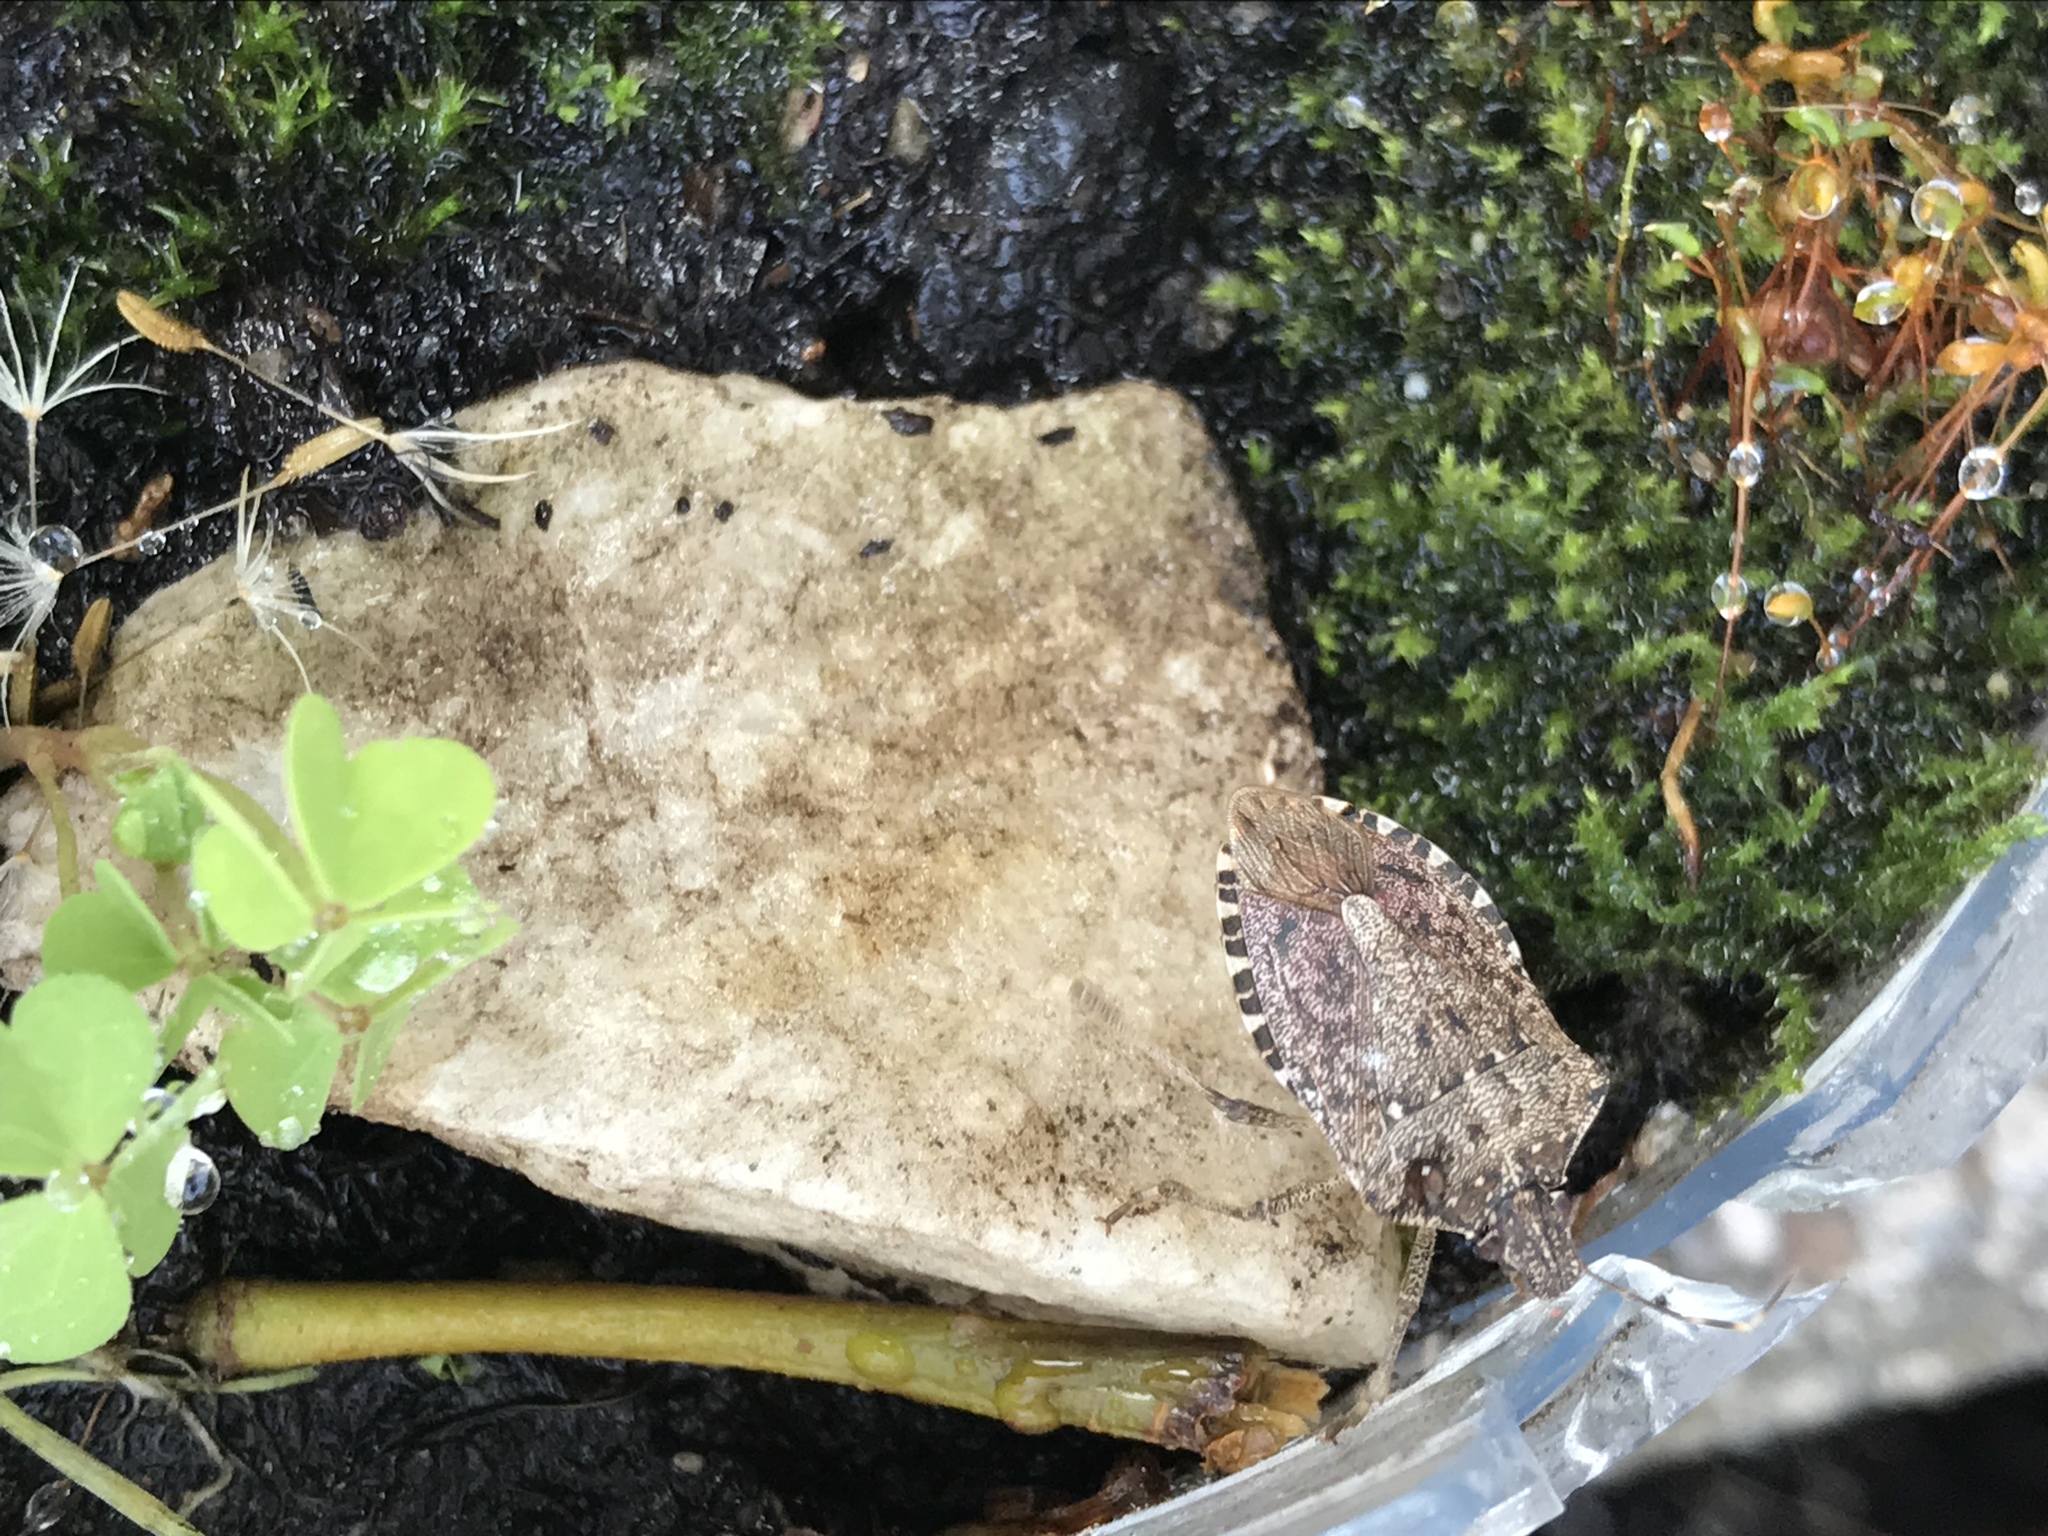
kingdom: Animalia
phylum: Arthropoda
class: Insecta
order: Hemiptera
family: Pentatomidae
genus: Halyomorpha
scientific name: Halyomorpha halys
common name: Brown marmorated stink bug
